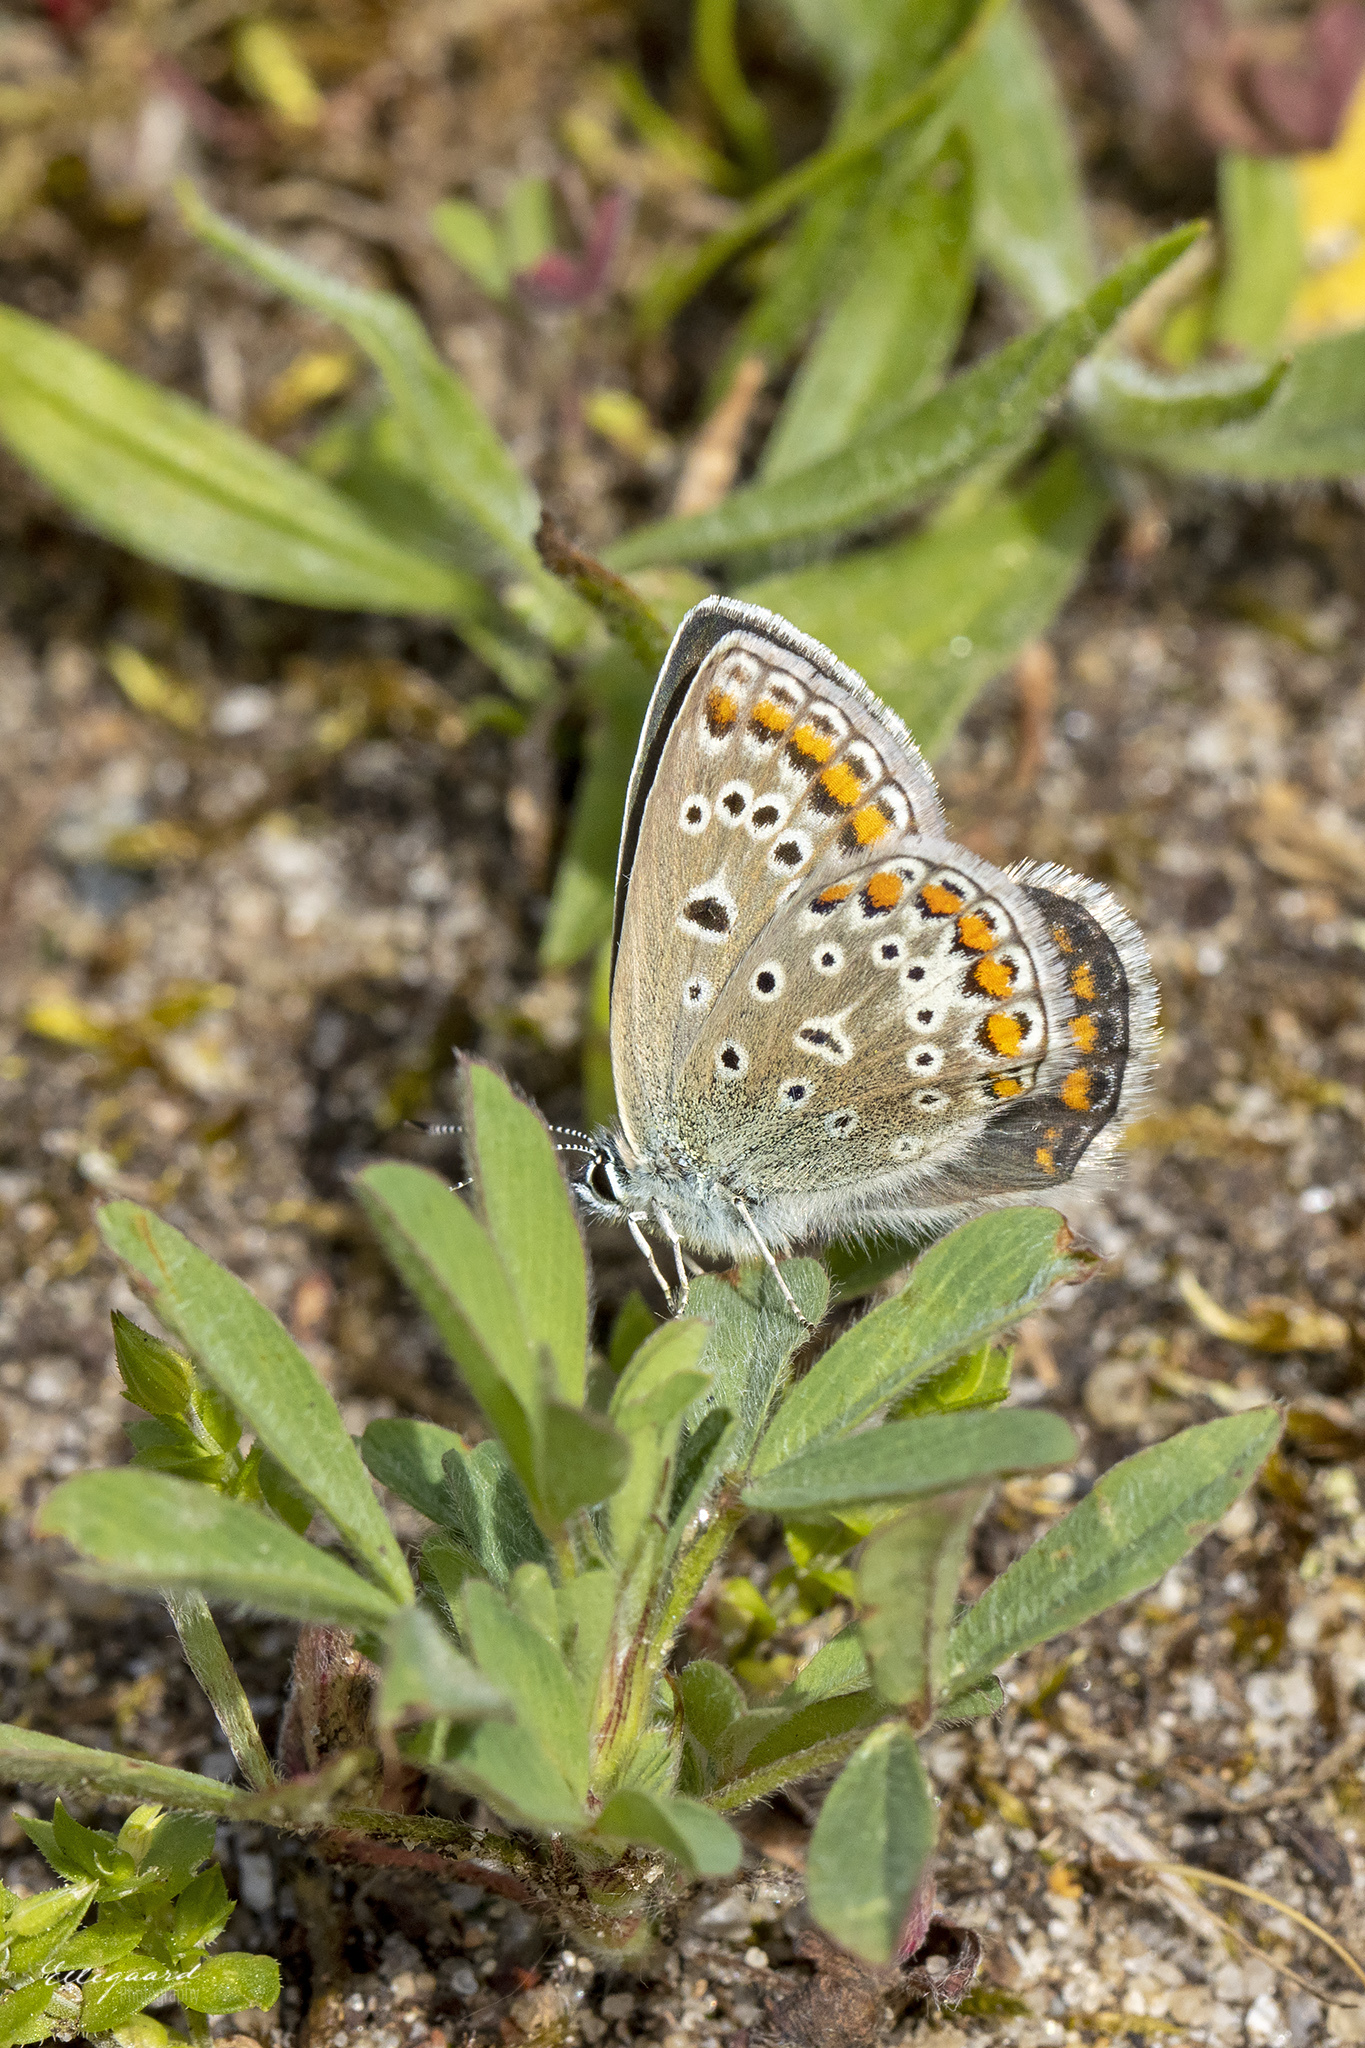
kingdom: Animalia
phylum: Arthropoda
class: Insecta
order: Lepidoptera
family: Lycaenidae
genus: Polyommatus
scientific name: Polyommatus icarus
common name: Common blue
